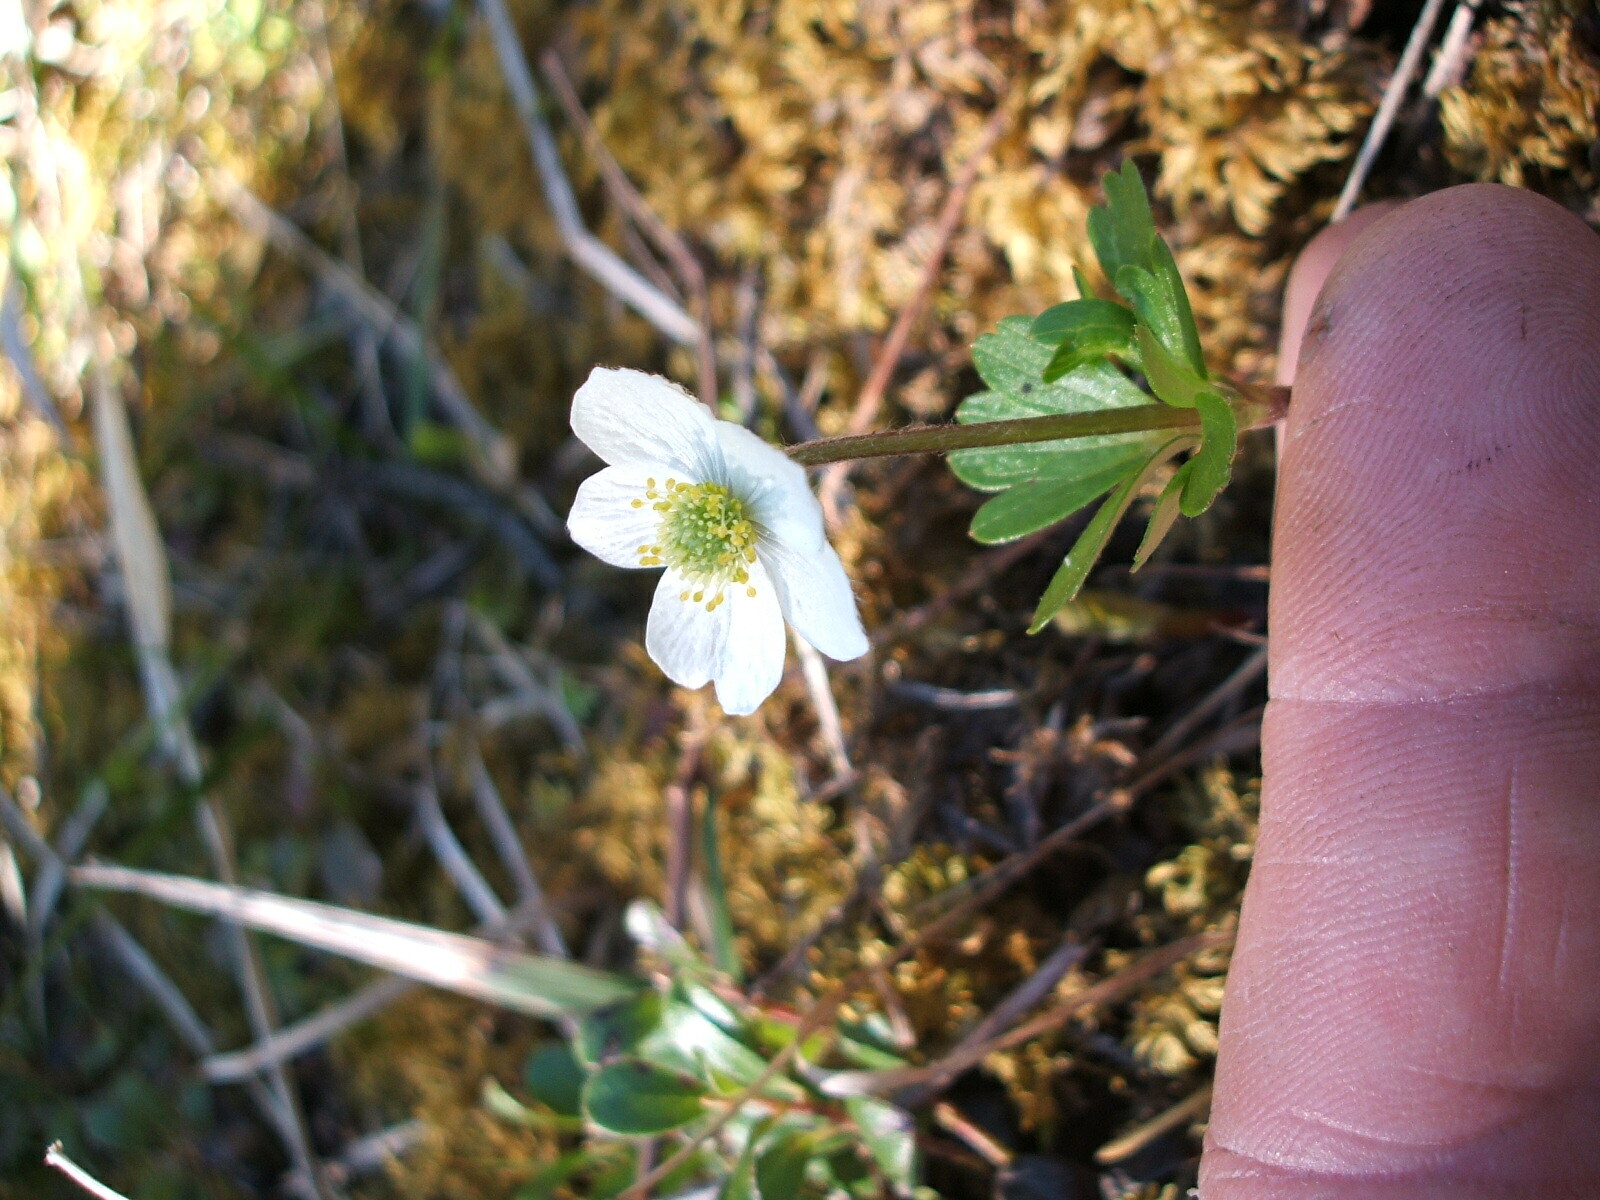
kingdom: Plantae
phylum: Tracheophyta
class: Magnoliopsida
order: Ranunculales
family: Ranunculaceae
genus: Anemone
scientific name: Anemone parviflora
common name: Northern anemone
